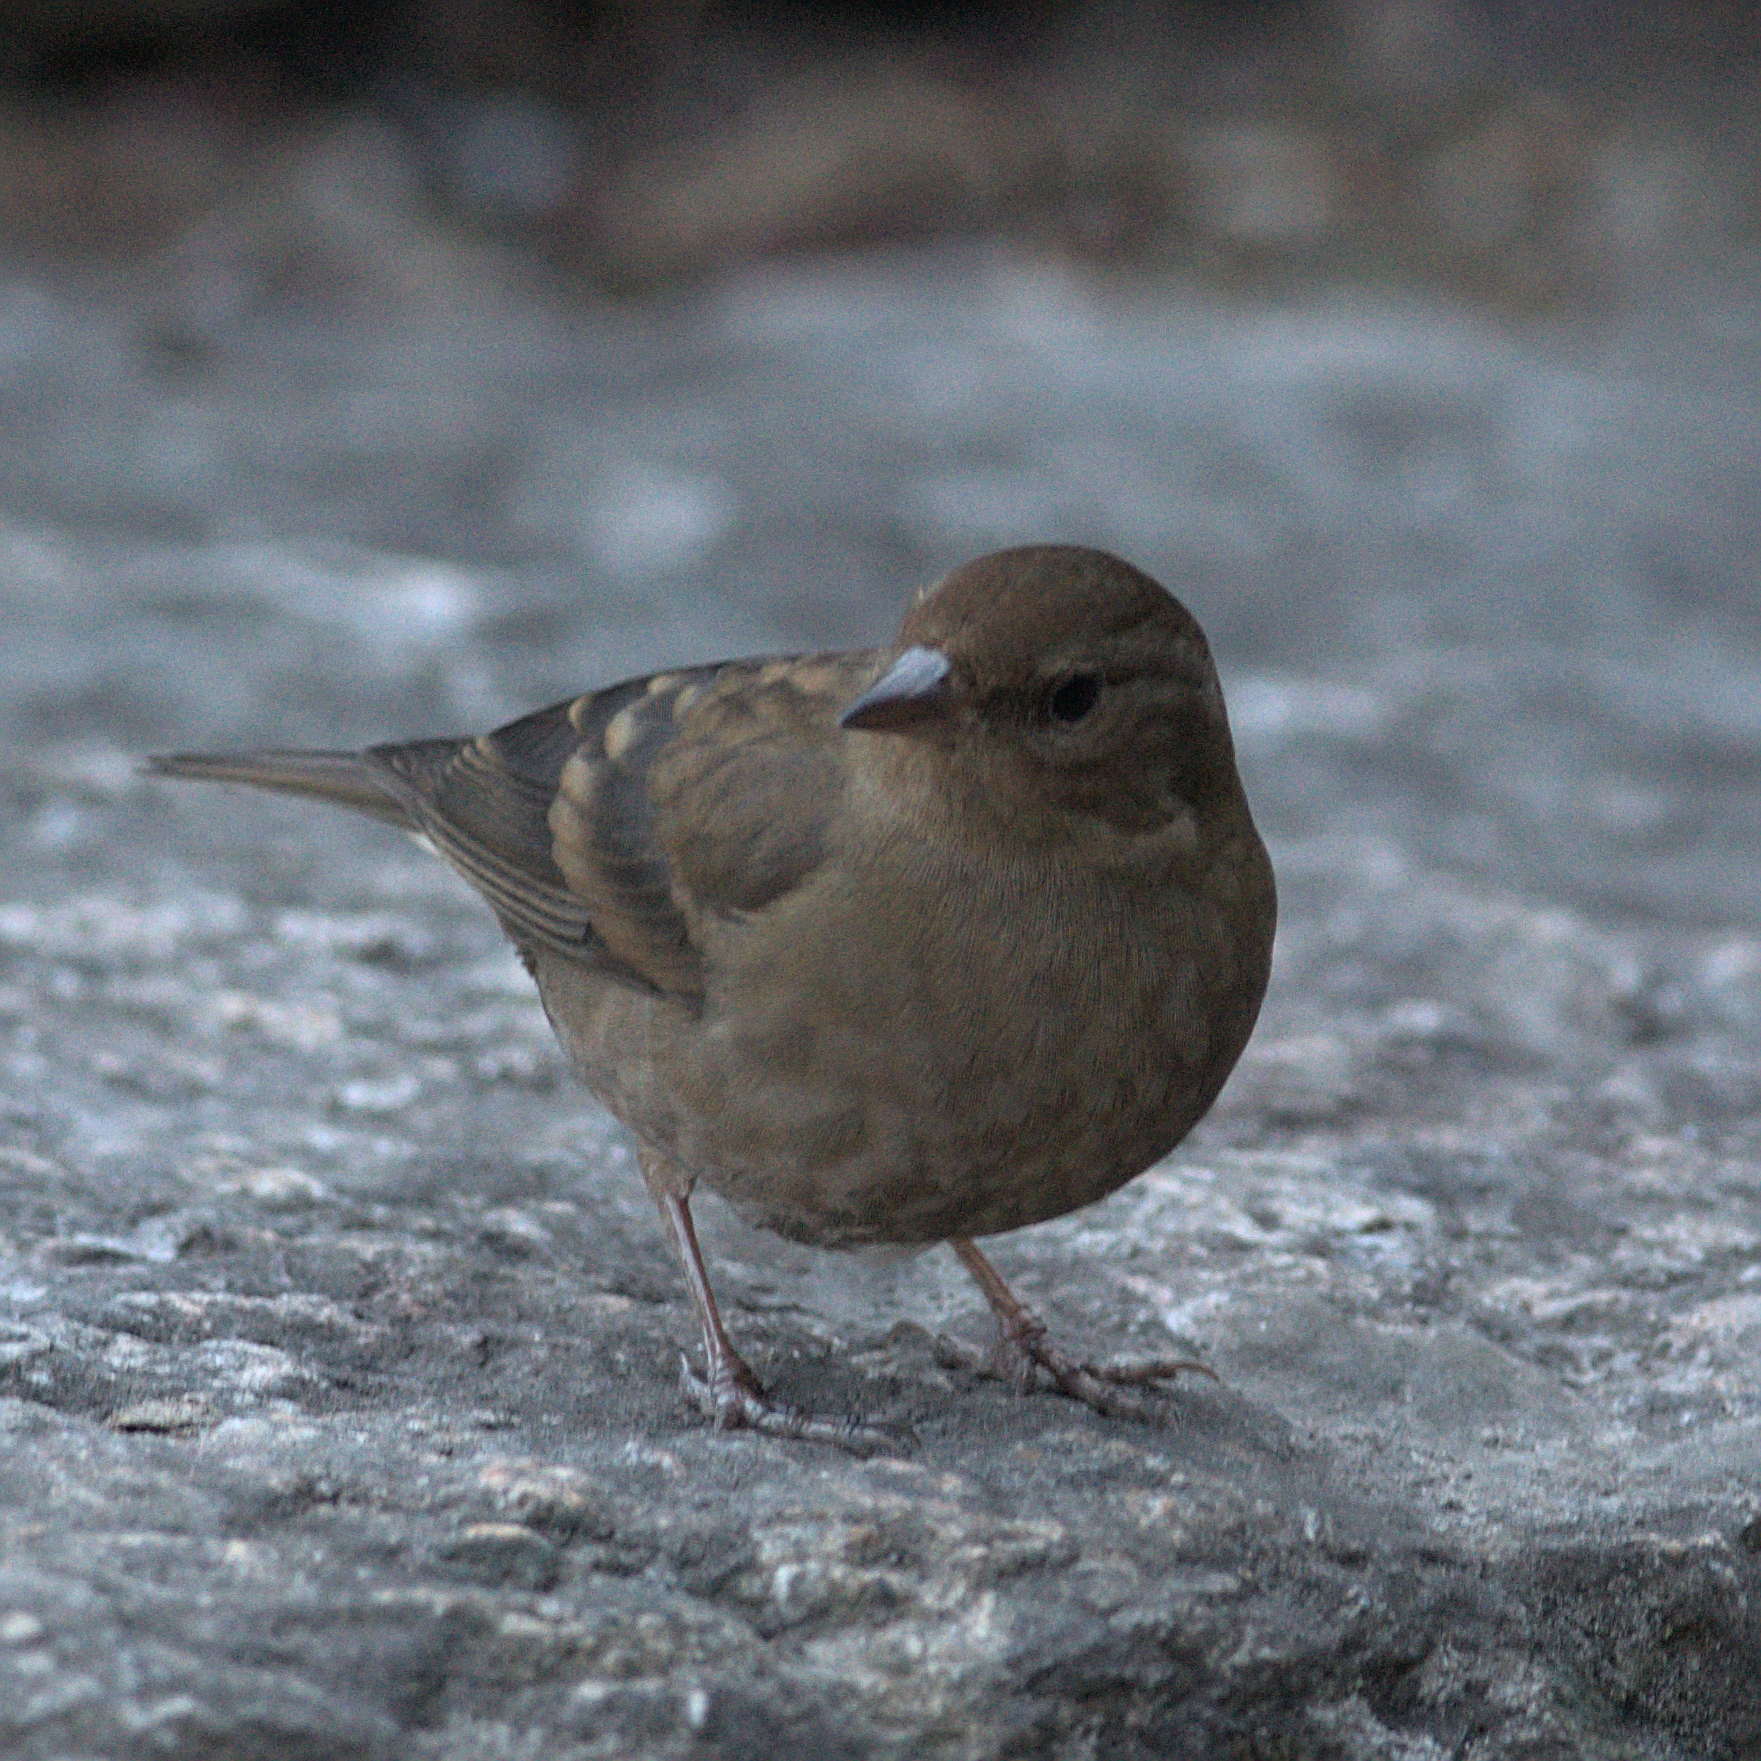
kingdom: Animalia
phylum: Chordata
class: Aves
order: Passeriformes
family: Fringillidae
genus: Procarduelis
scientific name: Procarduelis nipalensis
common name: Dark-breasted rosefinch
